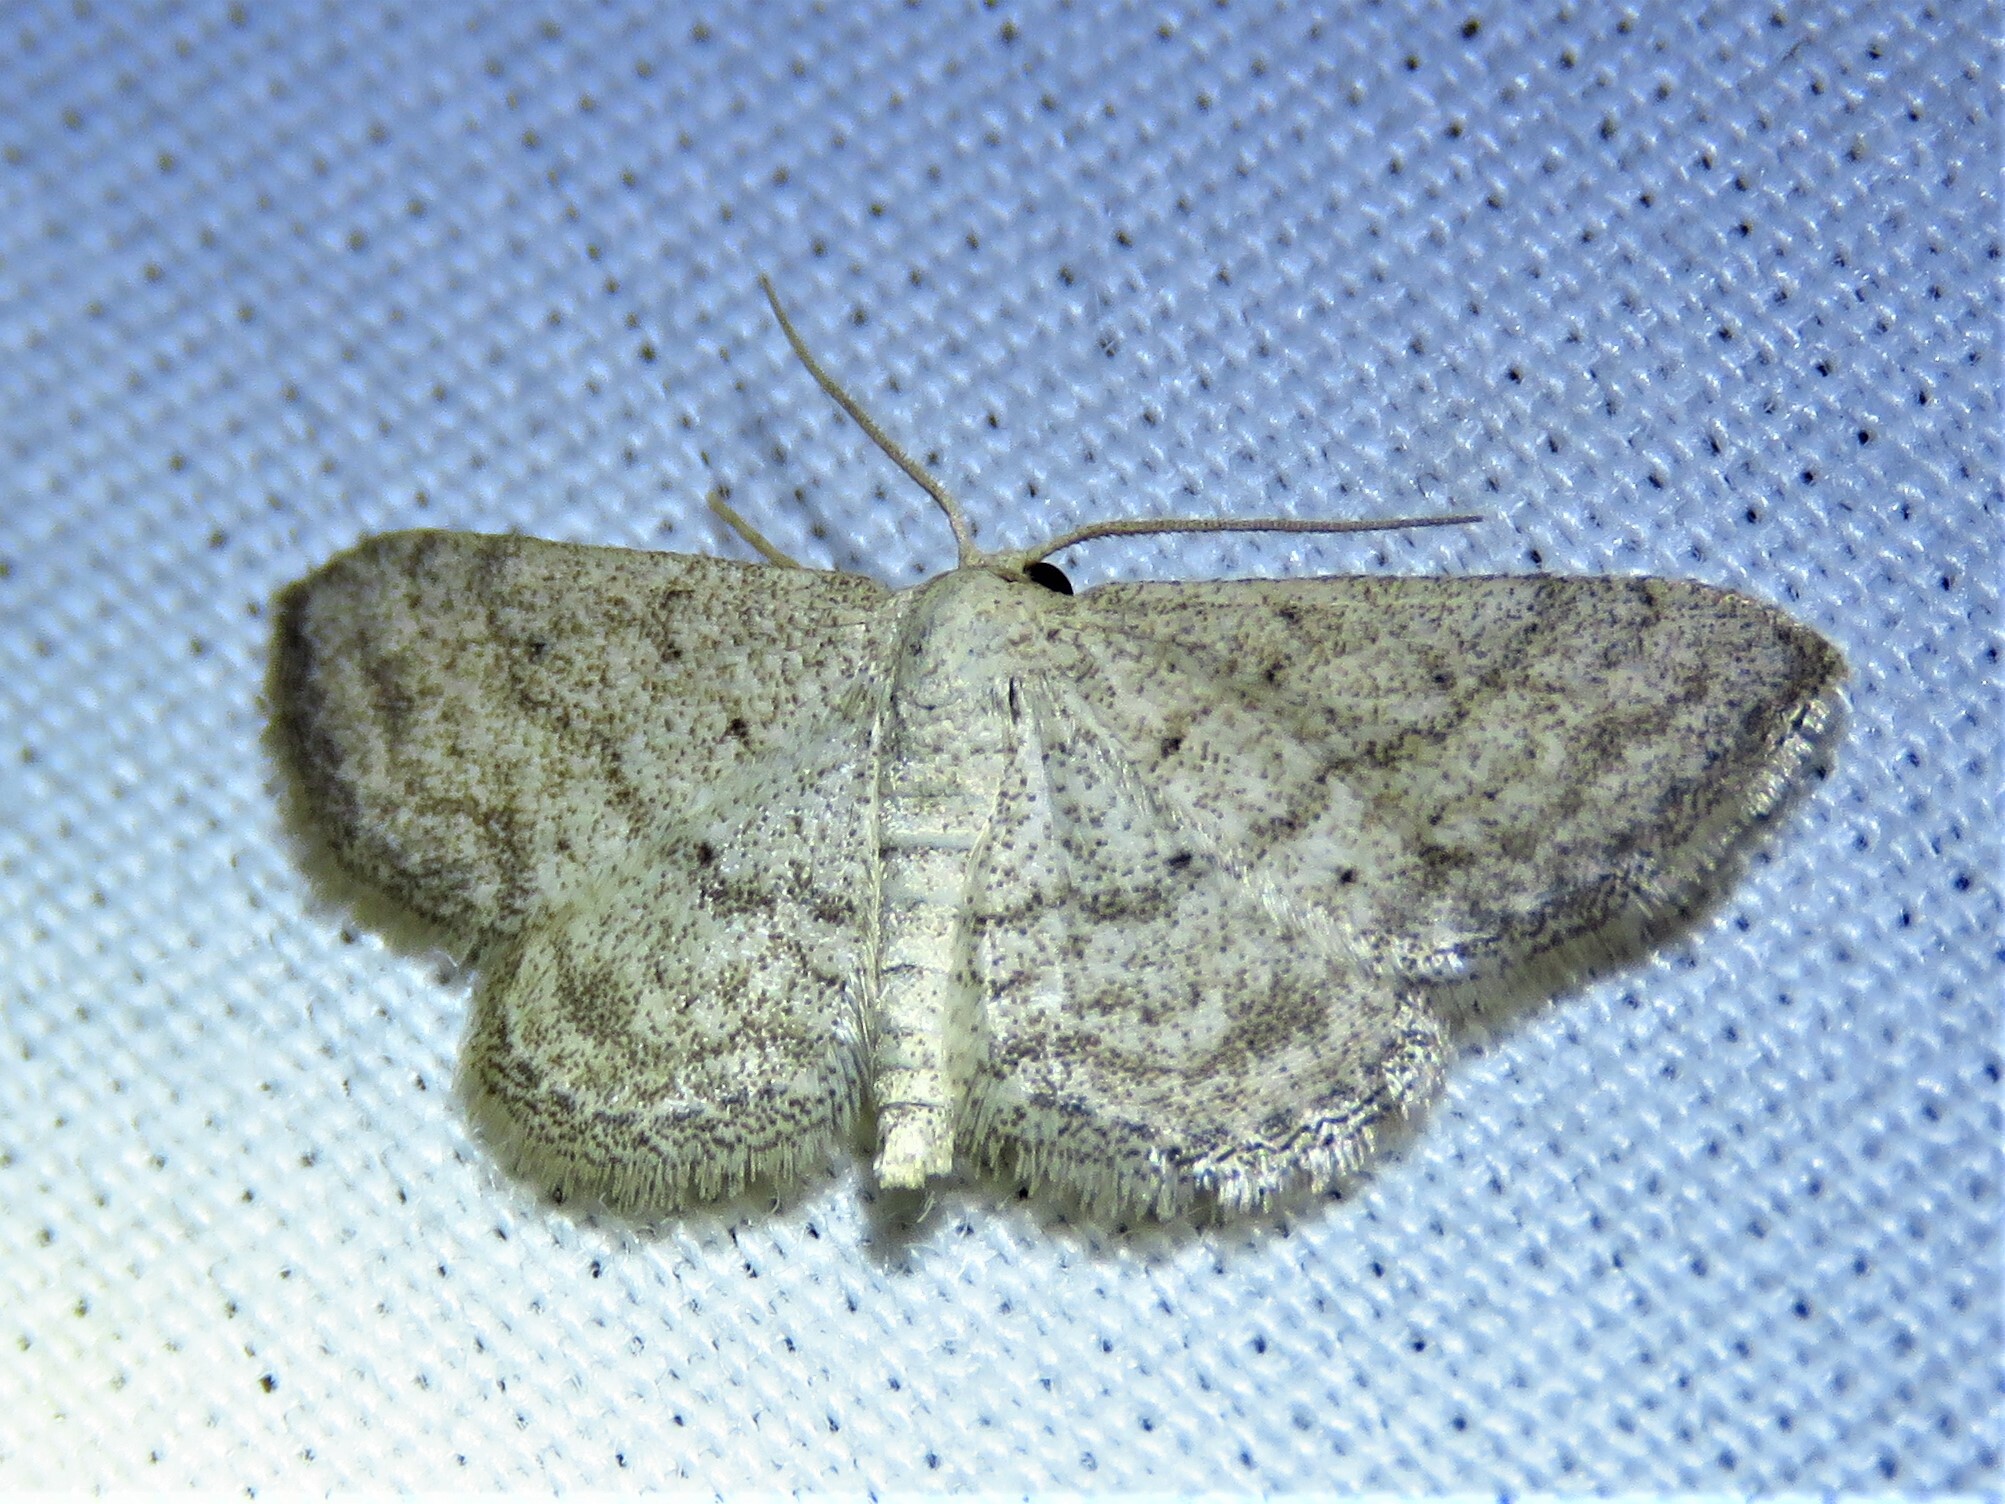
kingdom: Animalia
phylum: Arthropoda
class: Insecta
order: Lepidoptera
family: Geometridae
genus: Lobocleta
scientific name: Lobocleta ossularia
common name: Drab brown wave
